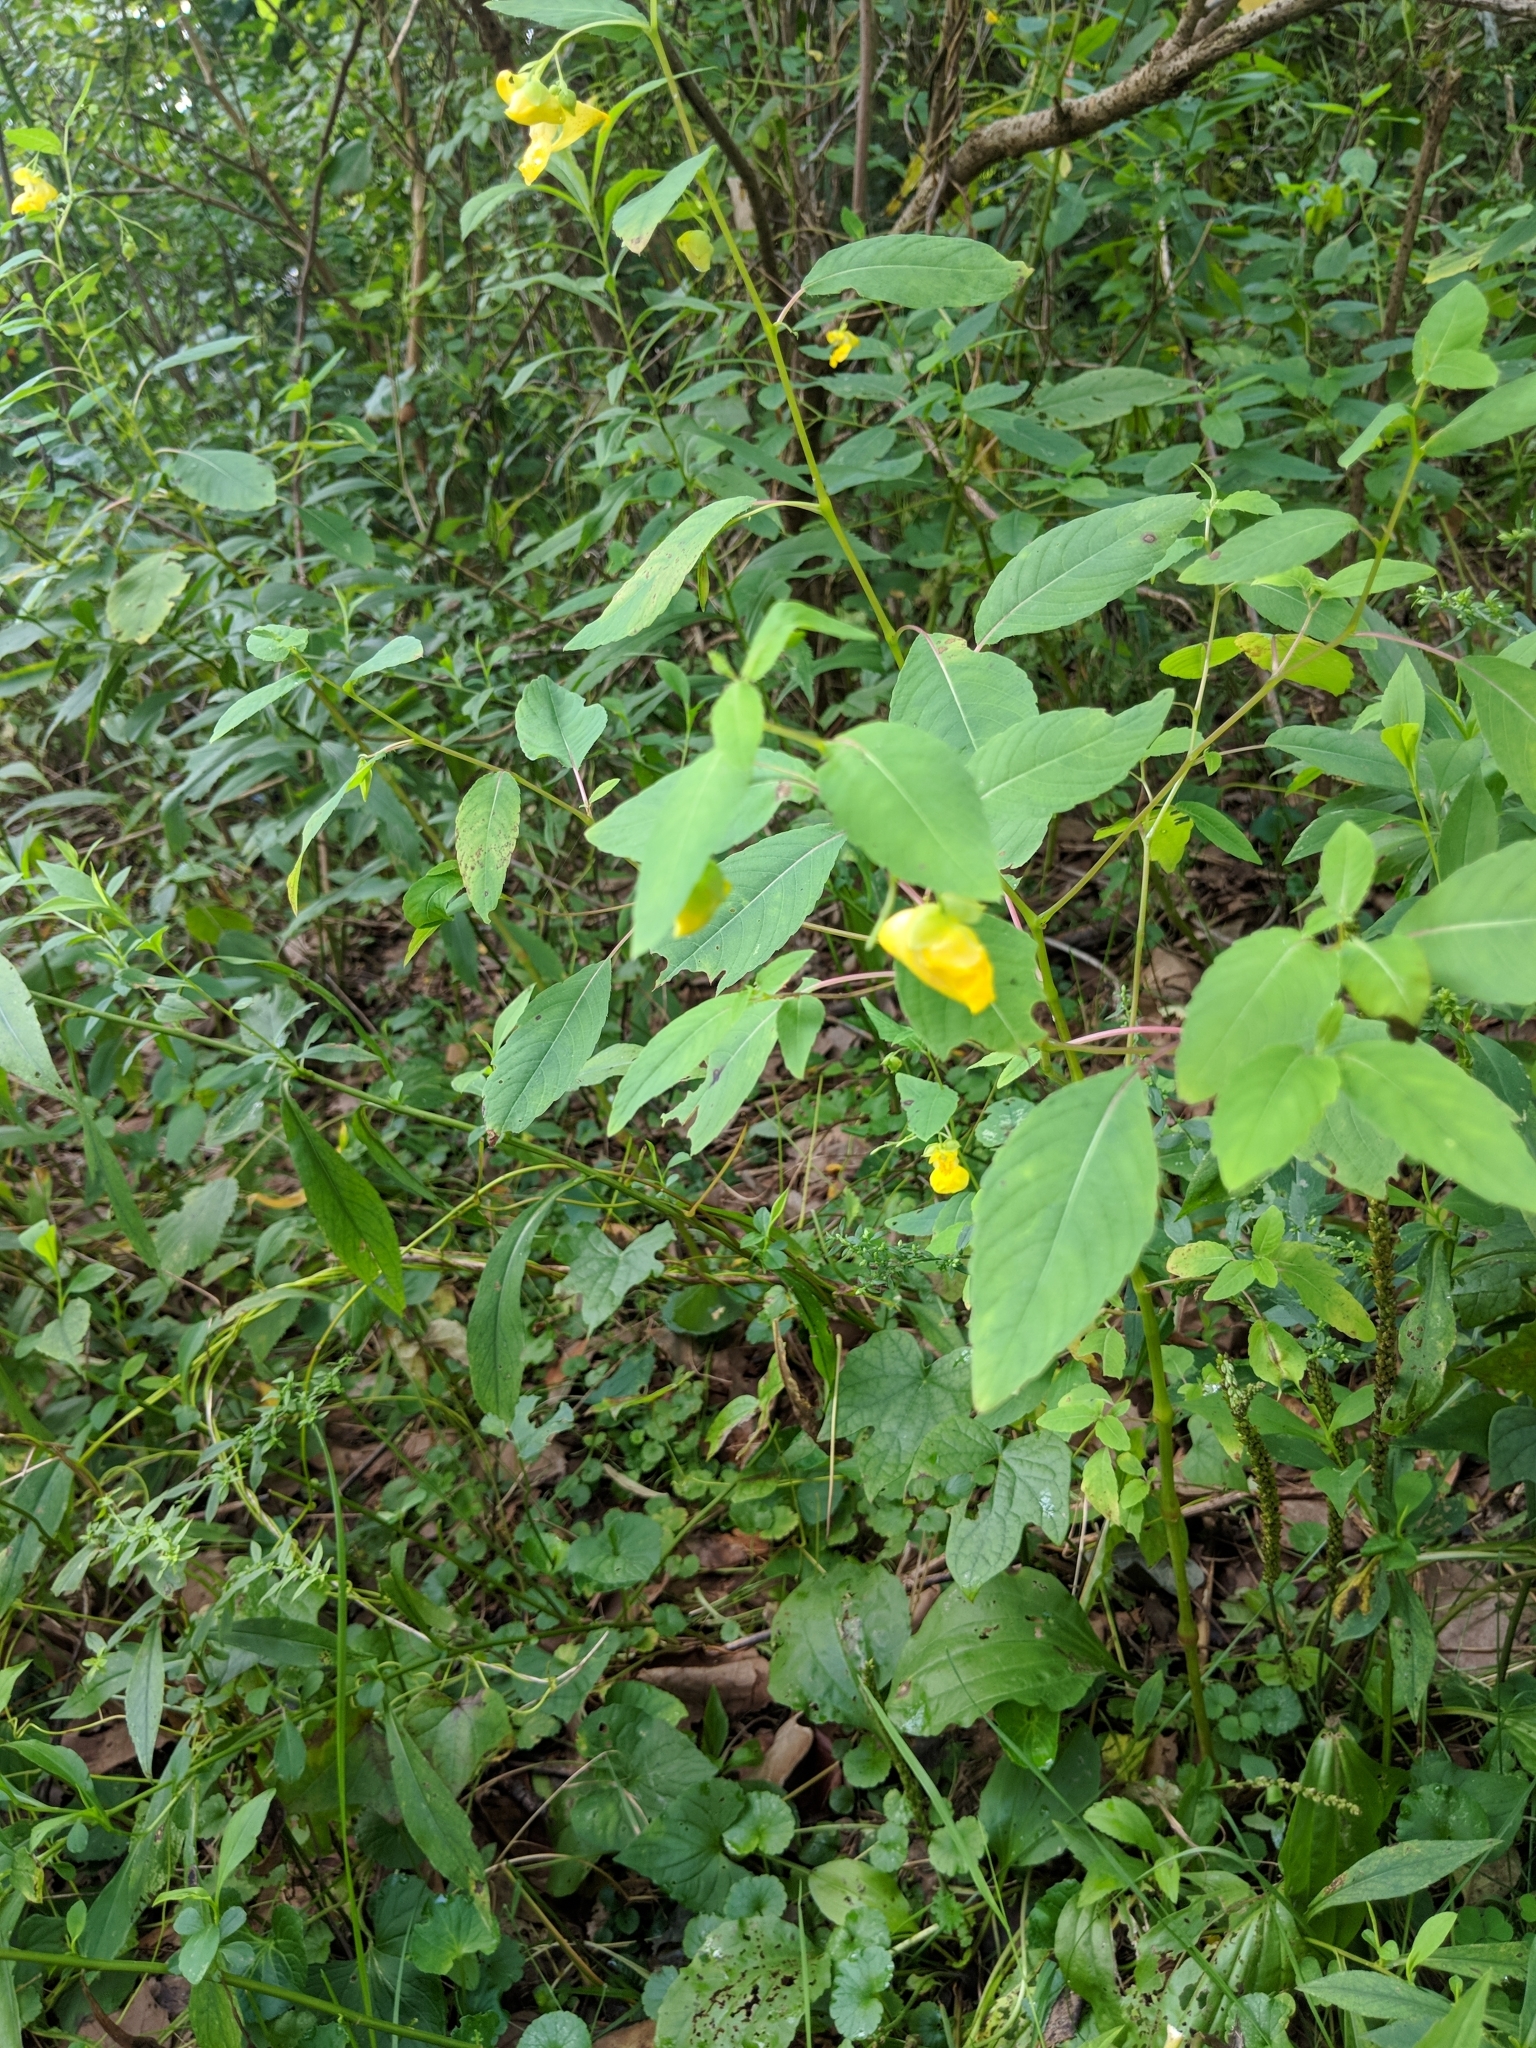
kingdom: Plantae
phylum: Tracheophyta
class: Magnoliopsida
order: Ericales
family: Balsaminaceae
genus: Impatiens
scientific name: Impatiens pallida
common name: Pale snapweed
